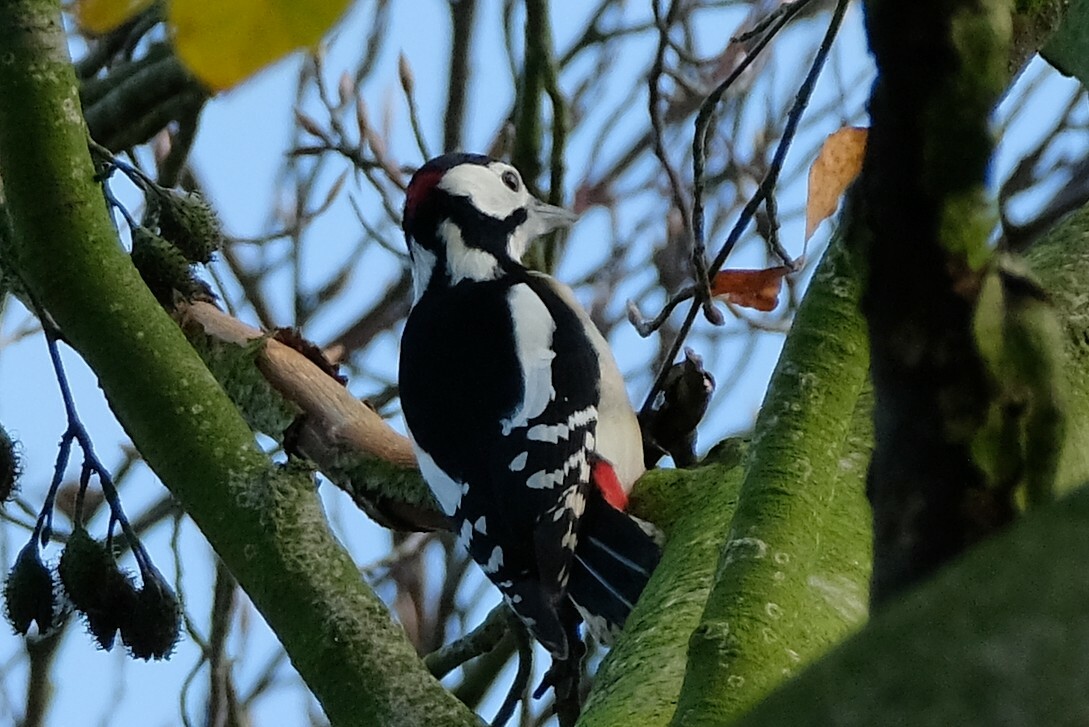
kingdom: Animalia
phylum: Chordata
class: Aves
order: Piciformes
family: Picidae
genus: Dendrocopos
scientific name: Dendrocopos major
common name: Great spotted woodpecker
